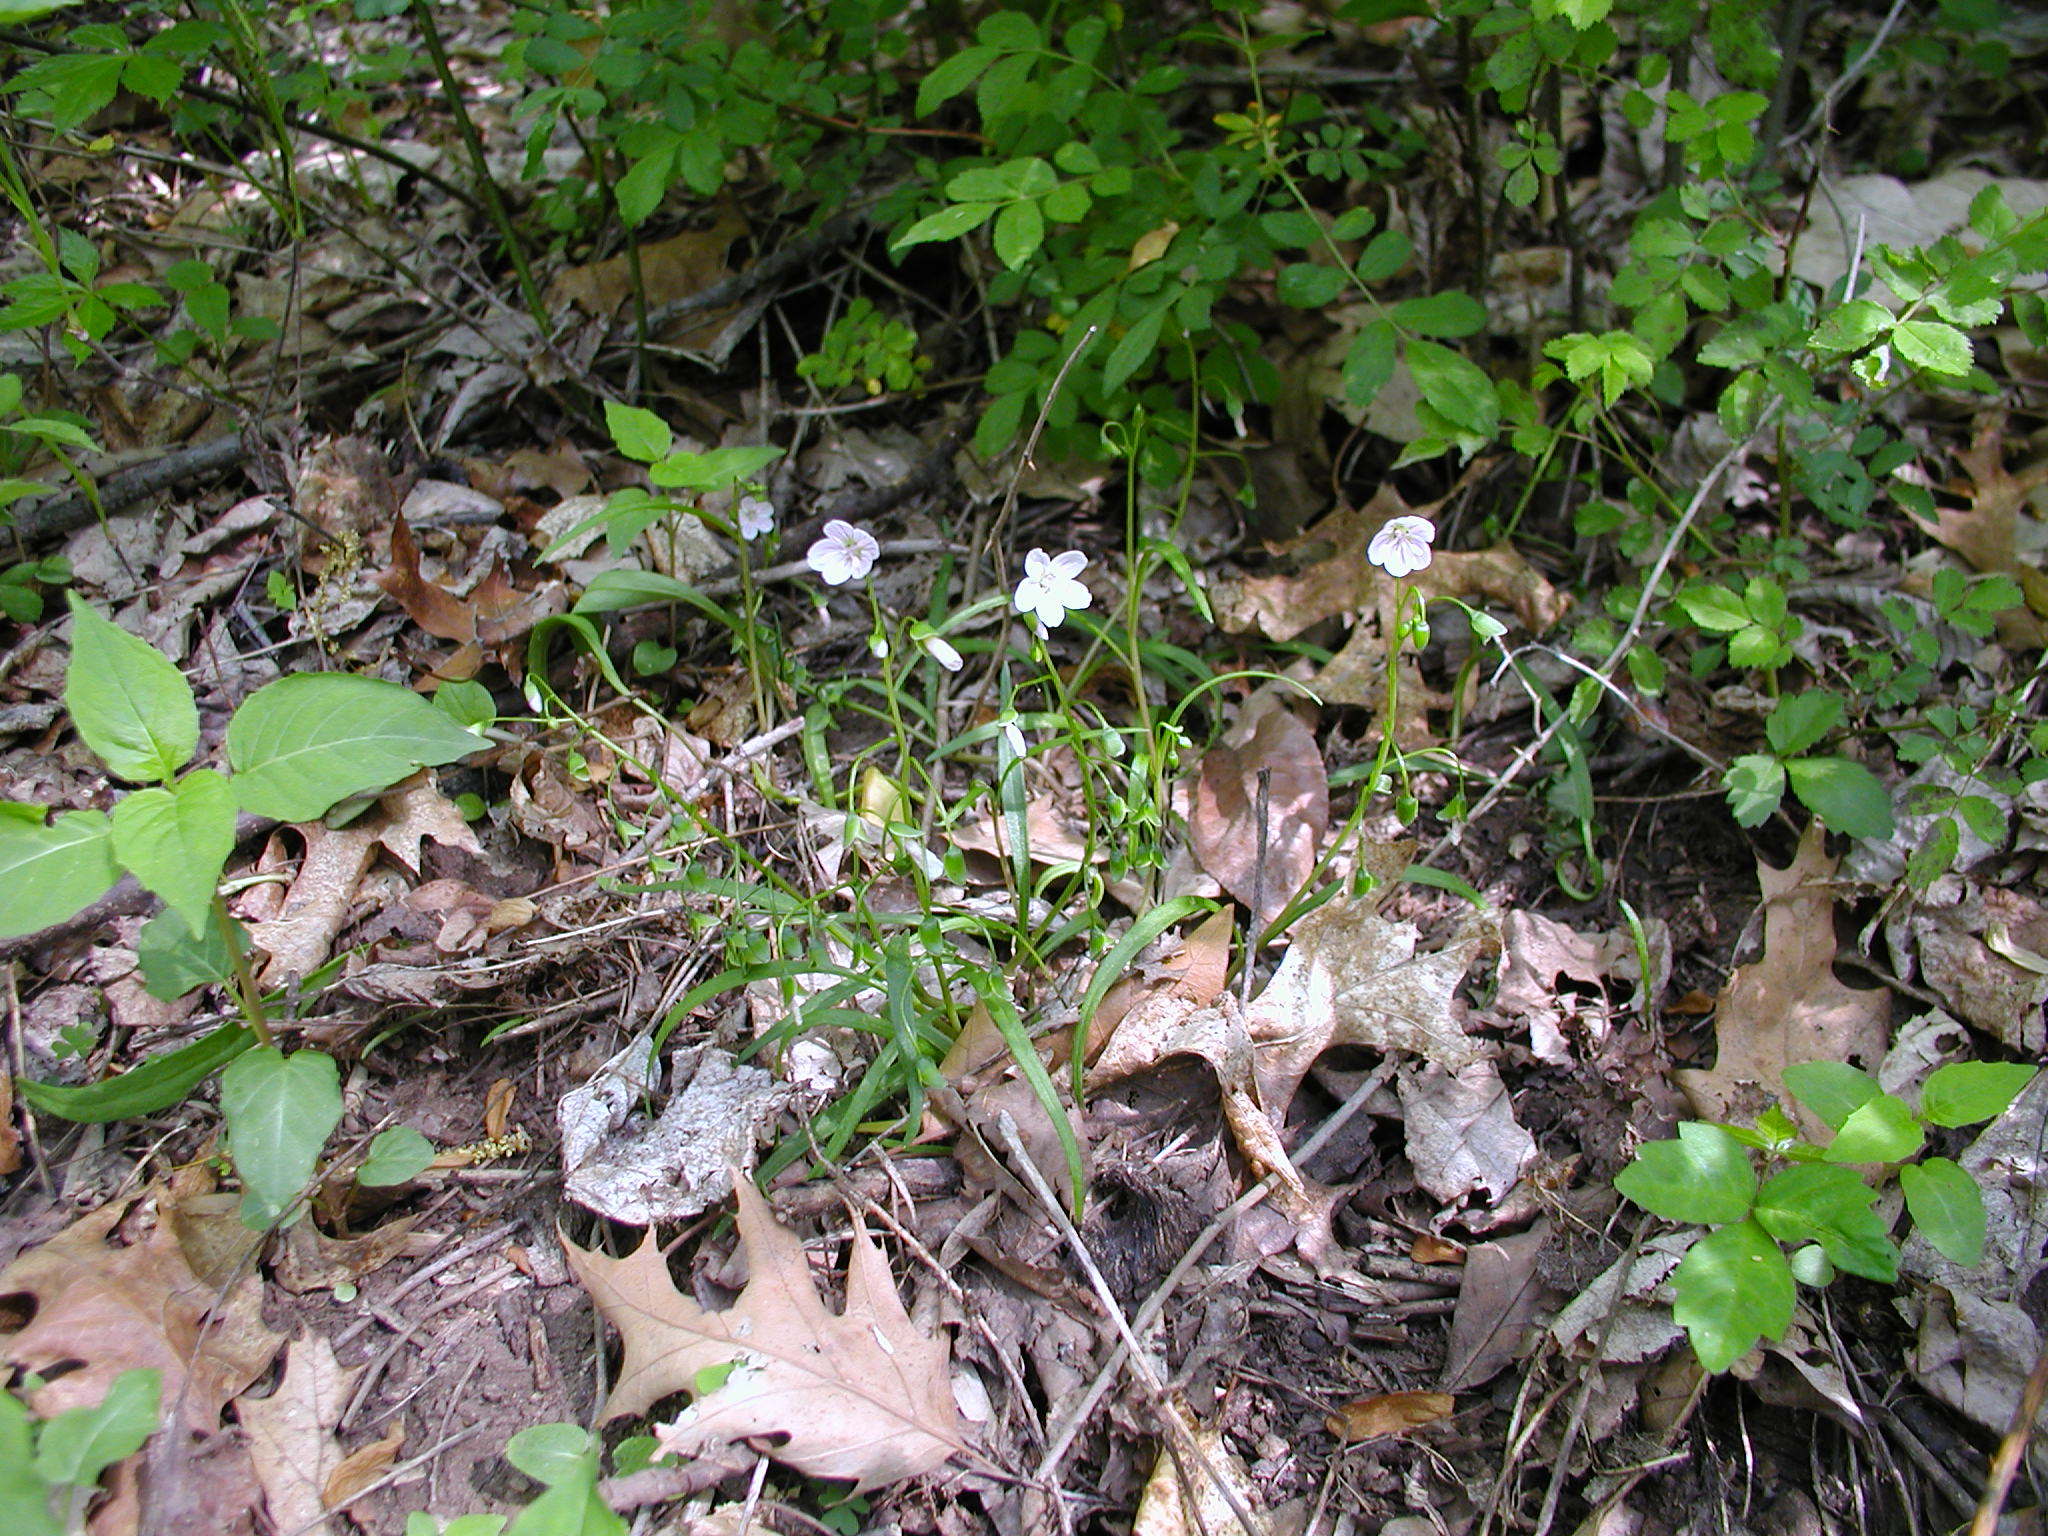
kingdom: Plantae
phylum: Tracheophyta
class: Magnoliopsida
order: Caryophyllales
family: Montiaceae
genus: Claytonia
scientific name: Claytonia virginica
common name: Virginia springbeauty
